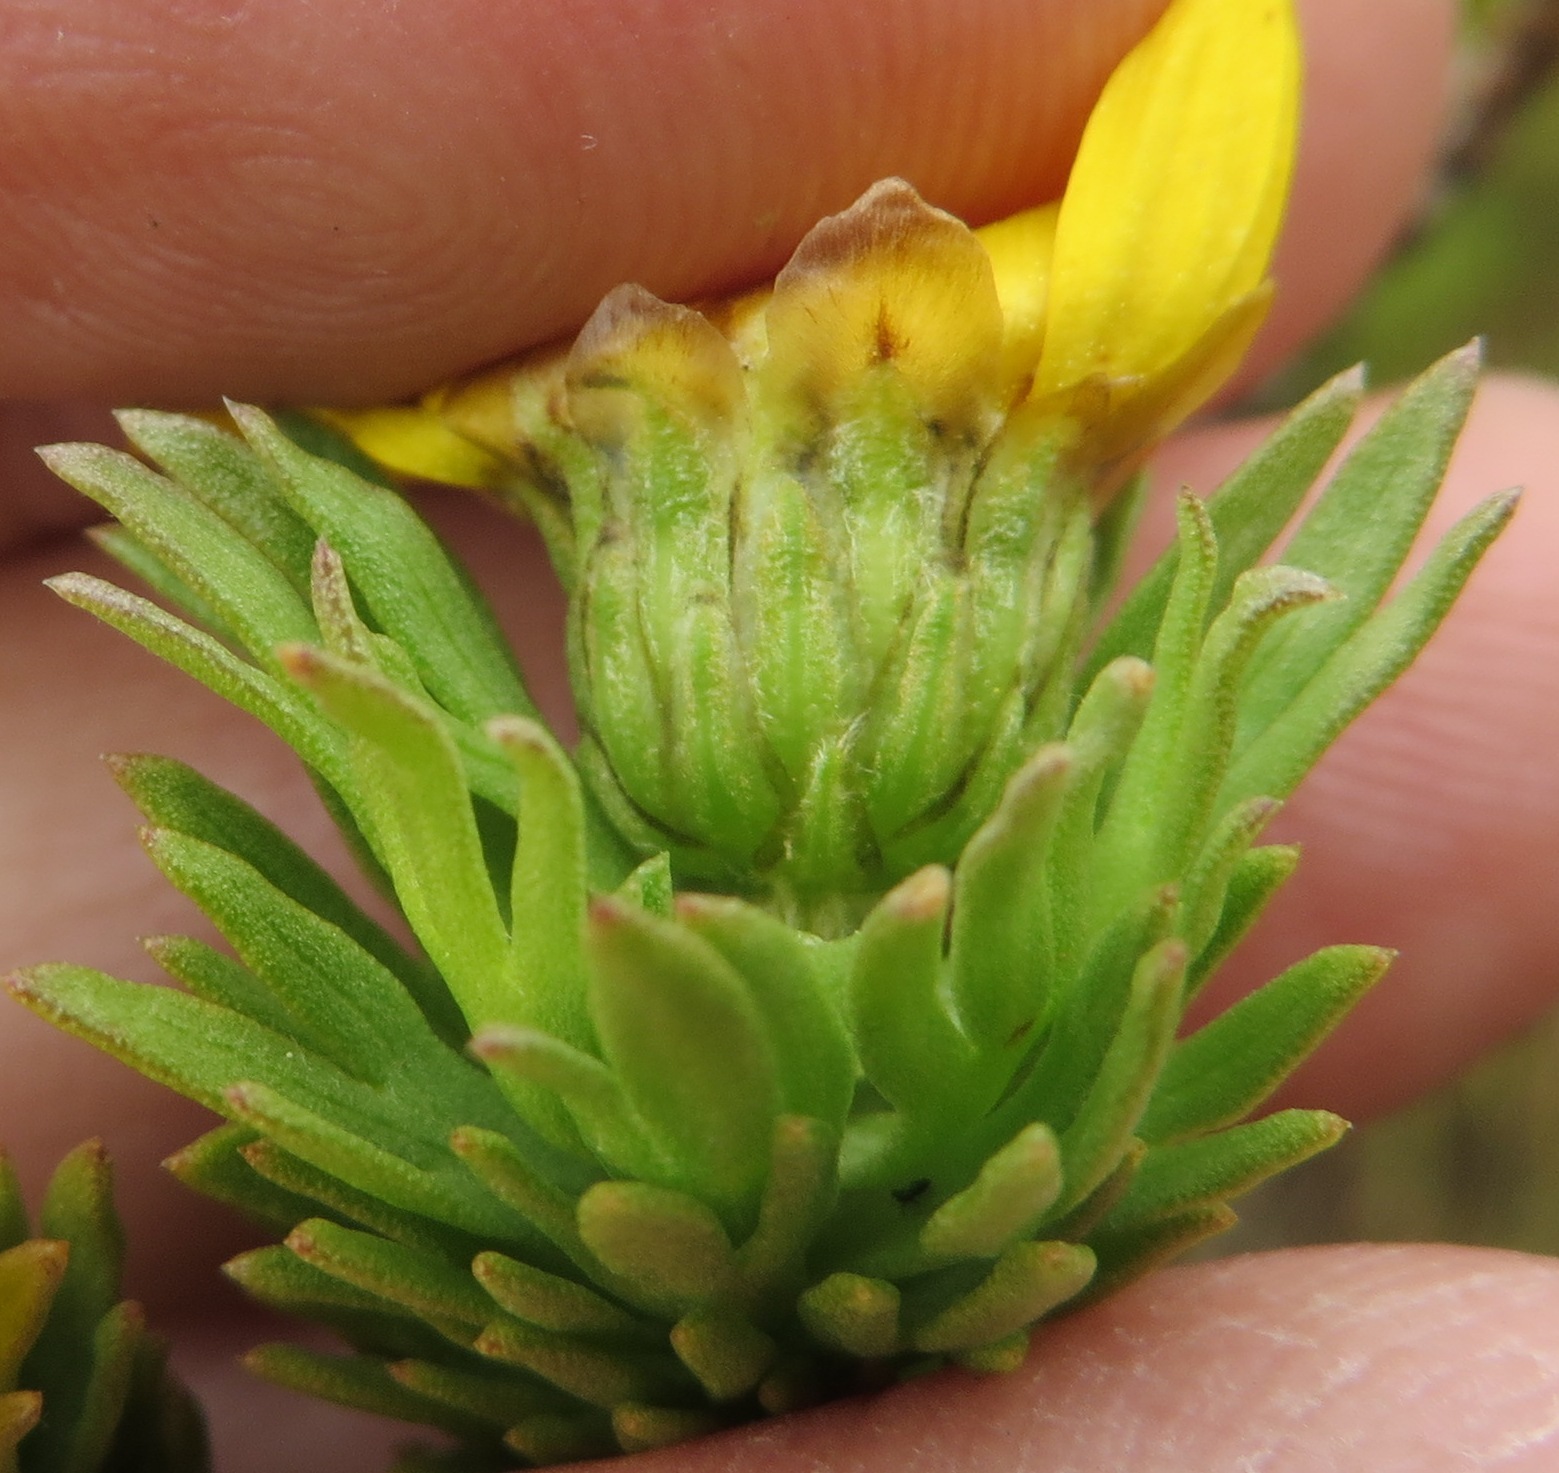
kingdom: Plantae
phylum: Tracheophyta
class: Magnoliopsida
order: Asterales
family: Asteraceae
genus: Ursinia
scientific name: Ursinia caledonica
